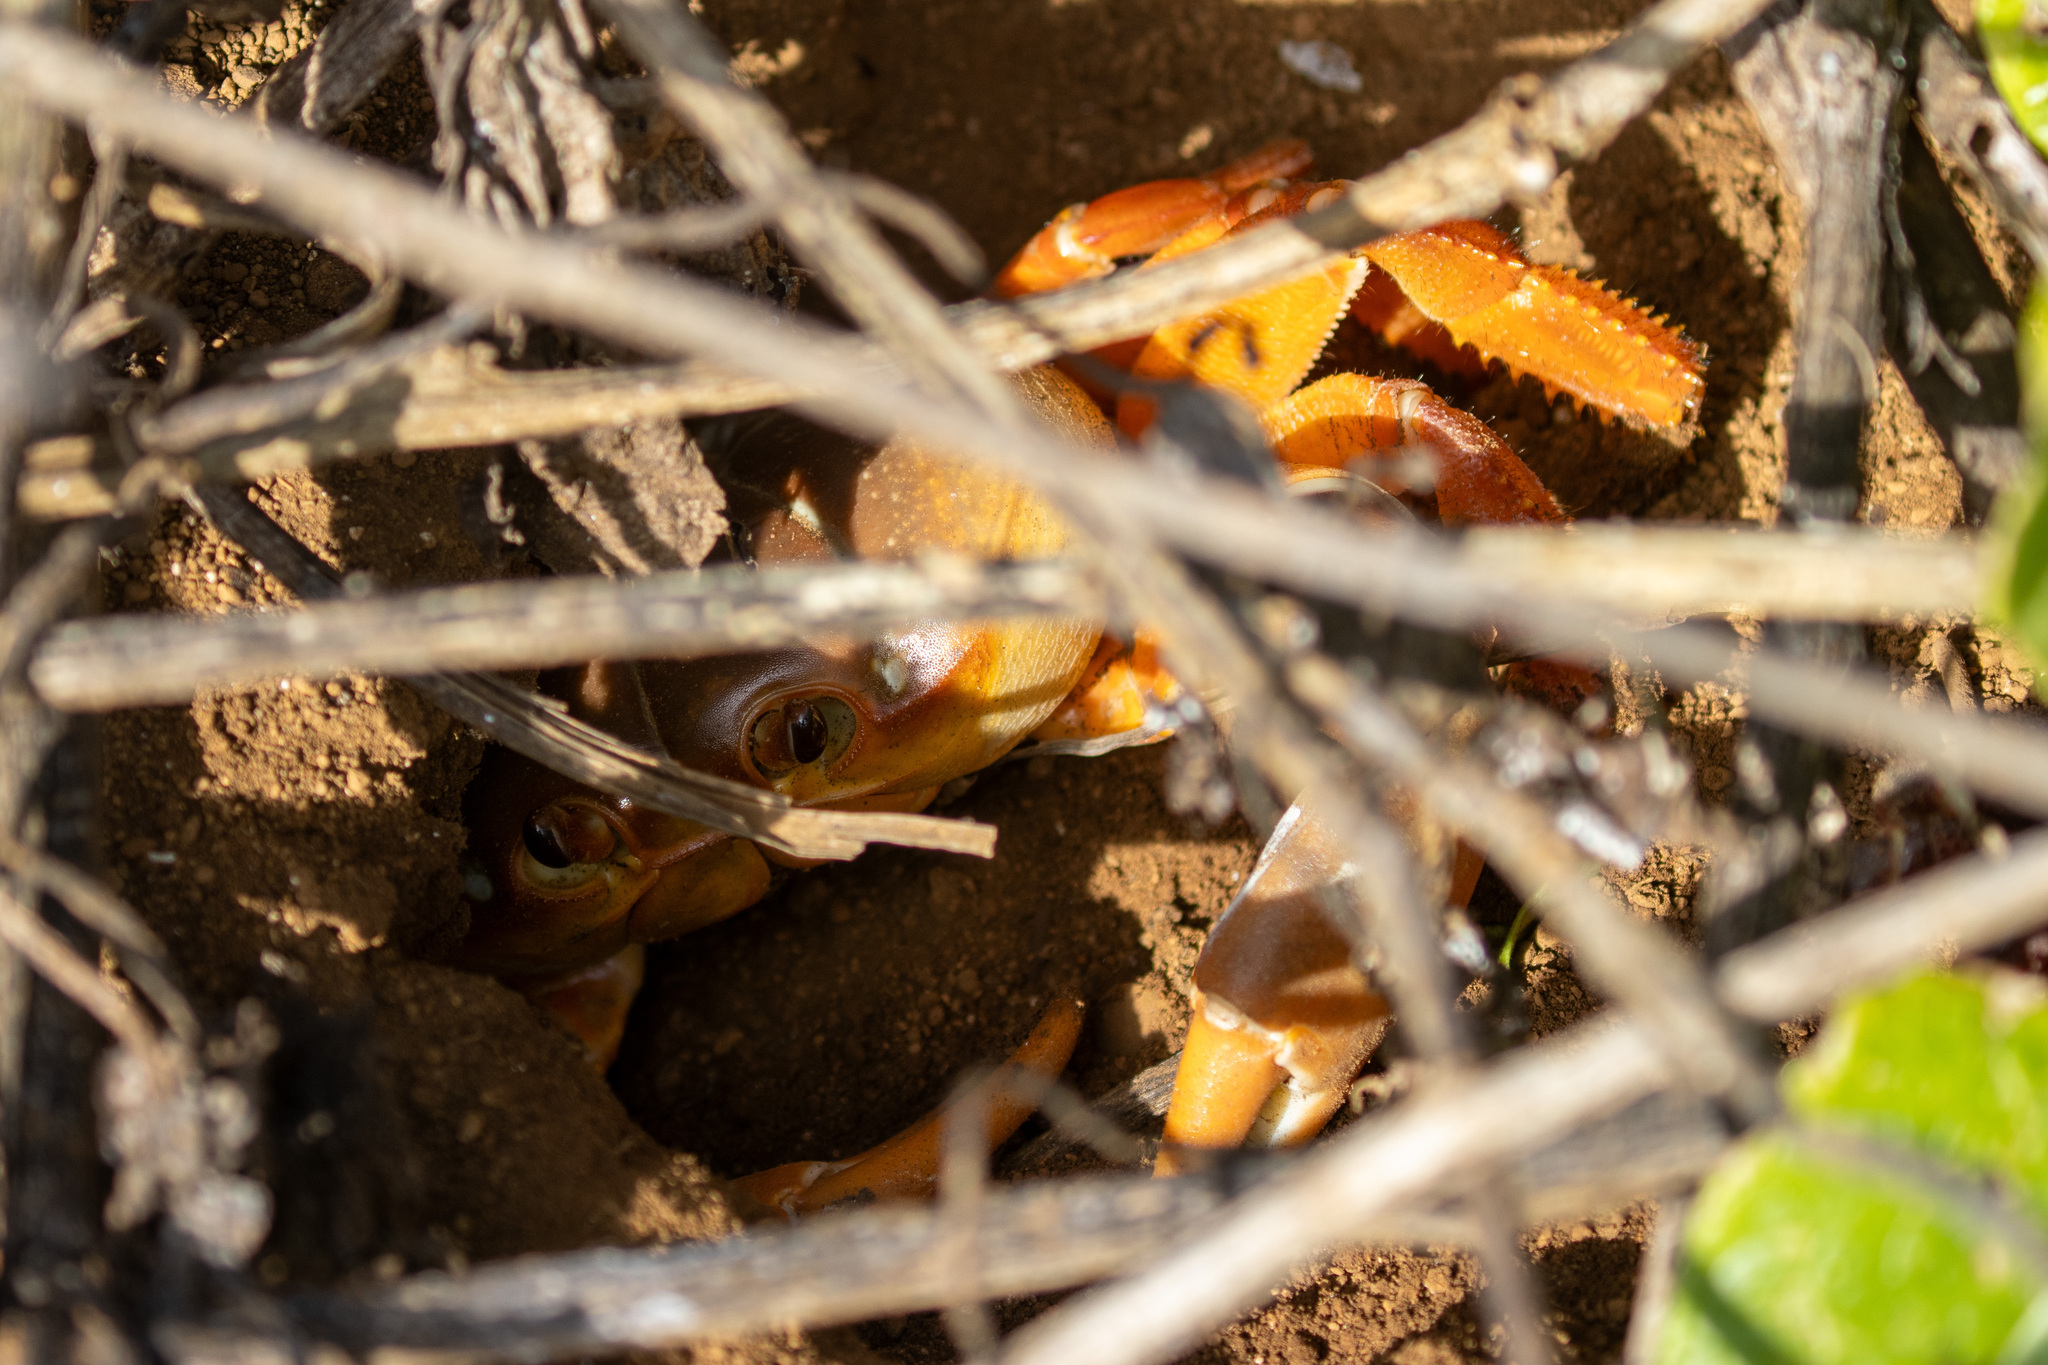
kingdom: Animalia
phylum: Arthropoda
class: Malacostraca
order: Decapoda
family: Gecarcinidae
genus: Johngarthia
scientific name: Johngarthia lagostoma
